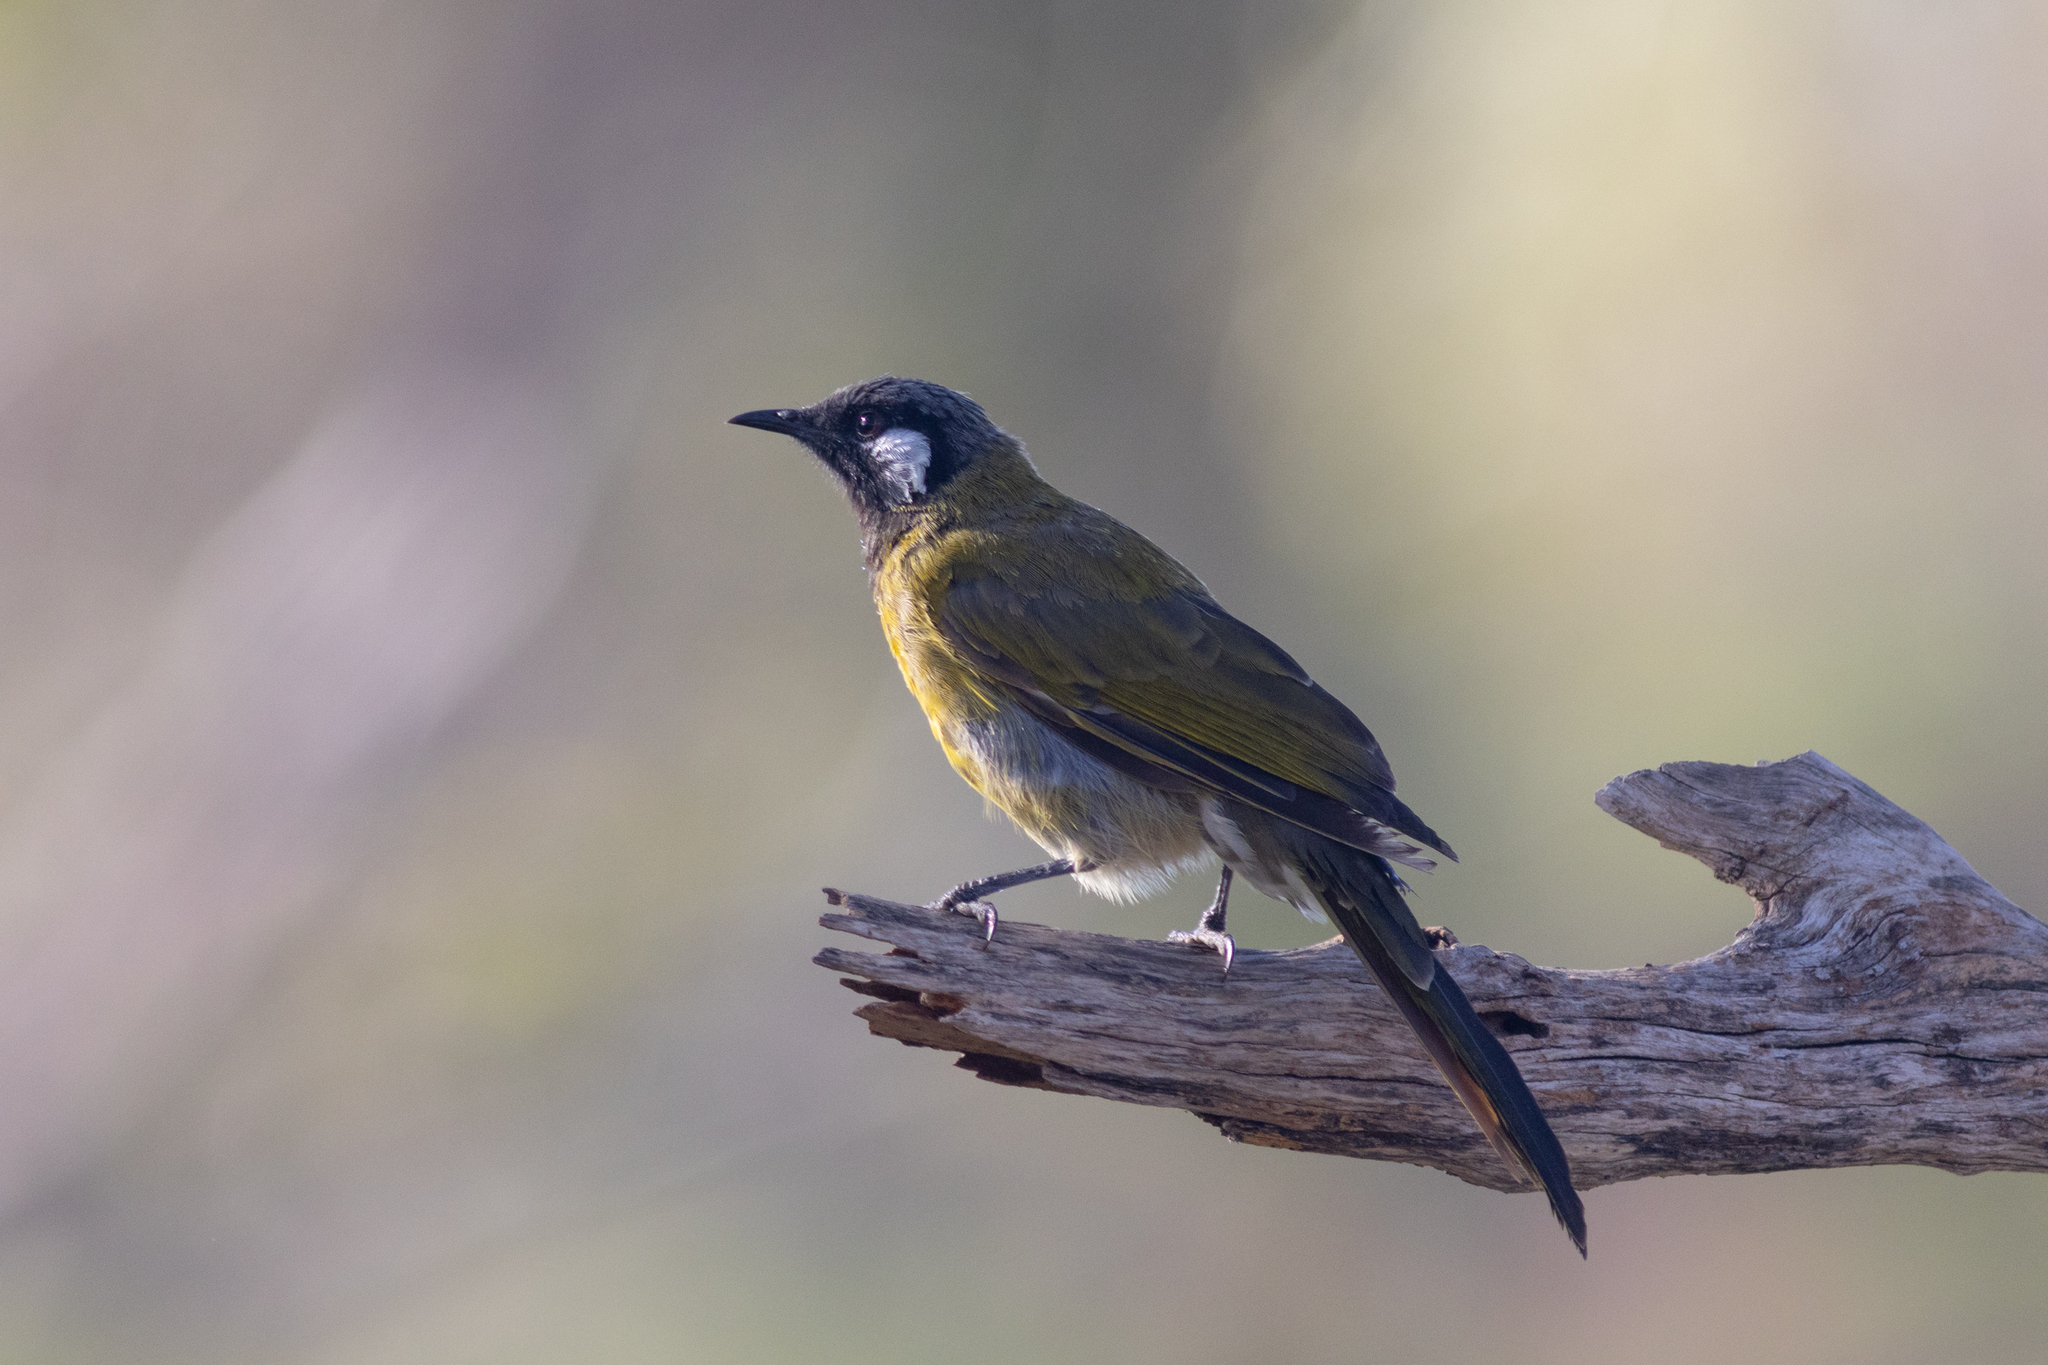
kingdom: Animalia
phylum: Chordata
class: Aves
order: Passeriformes
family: Meliphagidae
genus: Nesoptilotis
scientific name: Nesoptilotis leucotis
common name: White-eared honeyeater
